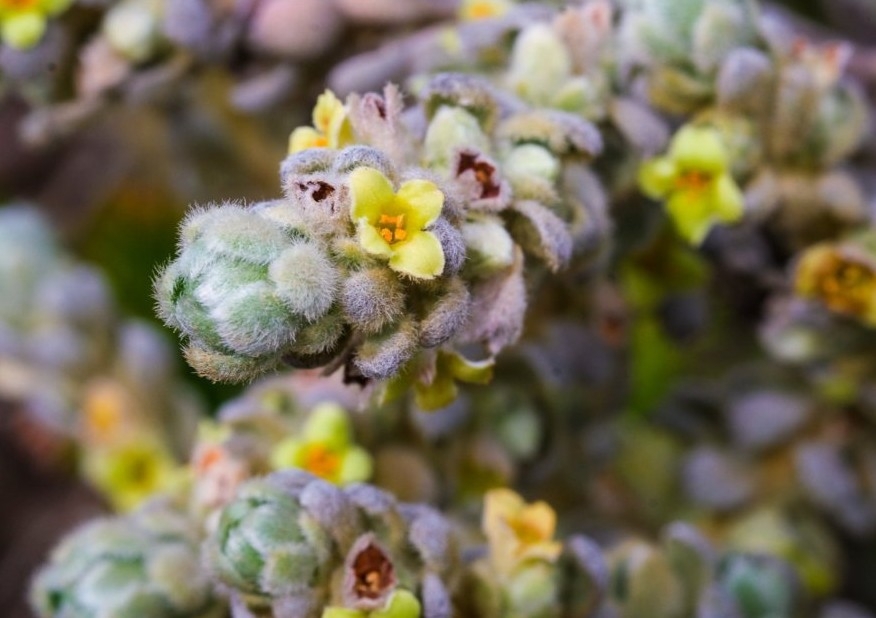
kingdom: Plantae
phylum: Tracheophyta
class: Magnoliopsida
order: Malvales
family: Thymelaeaceae
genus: Thymelaea
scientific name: Thymelaea velutina
